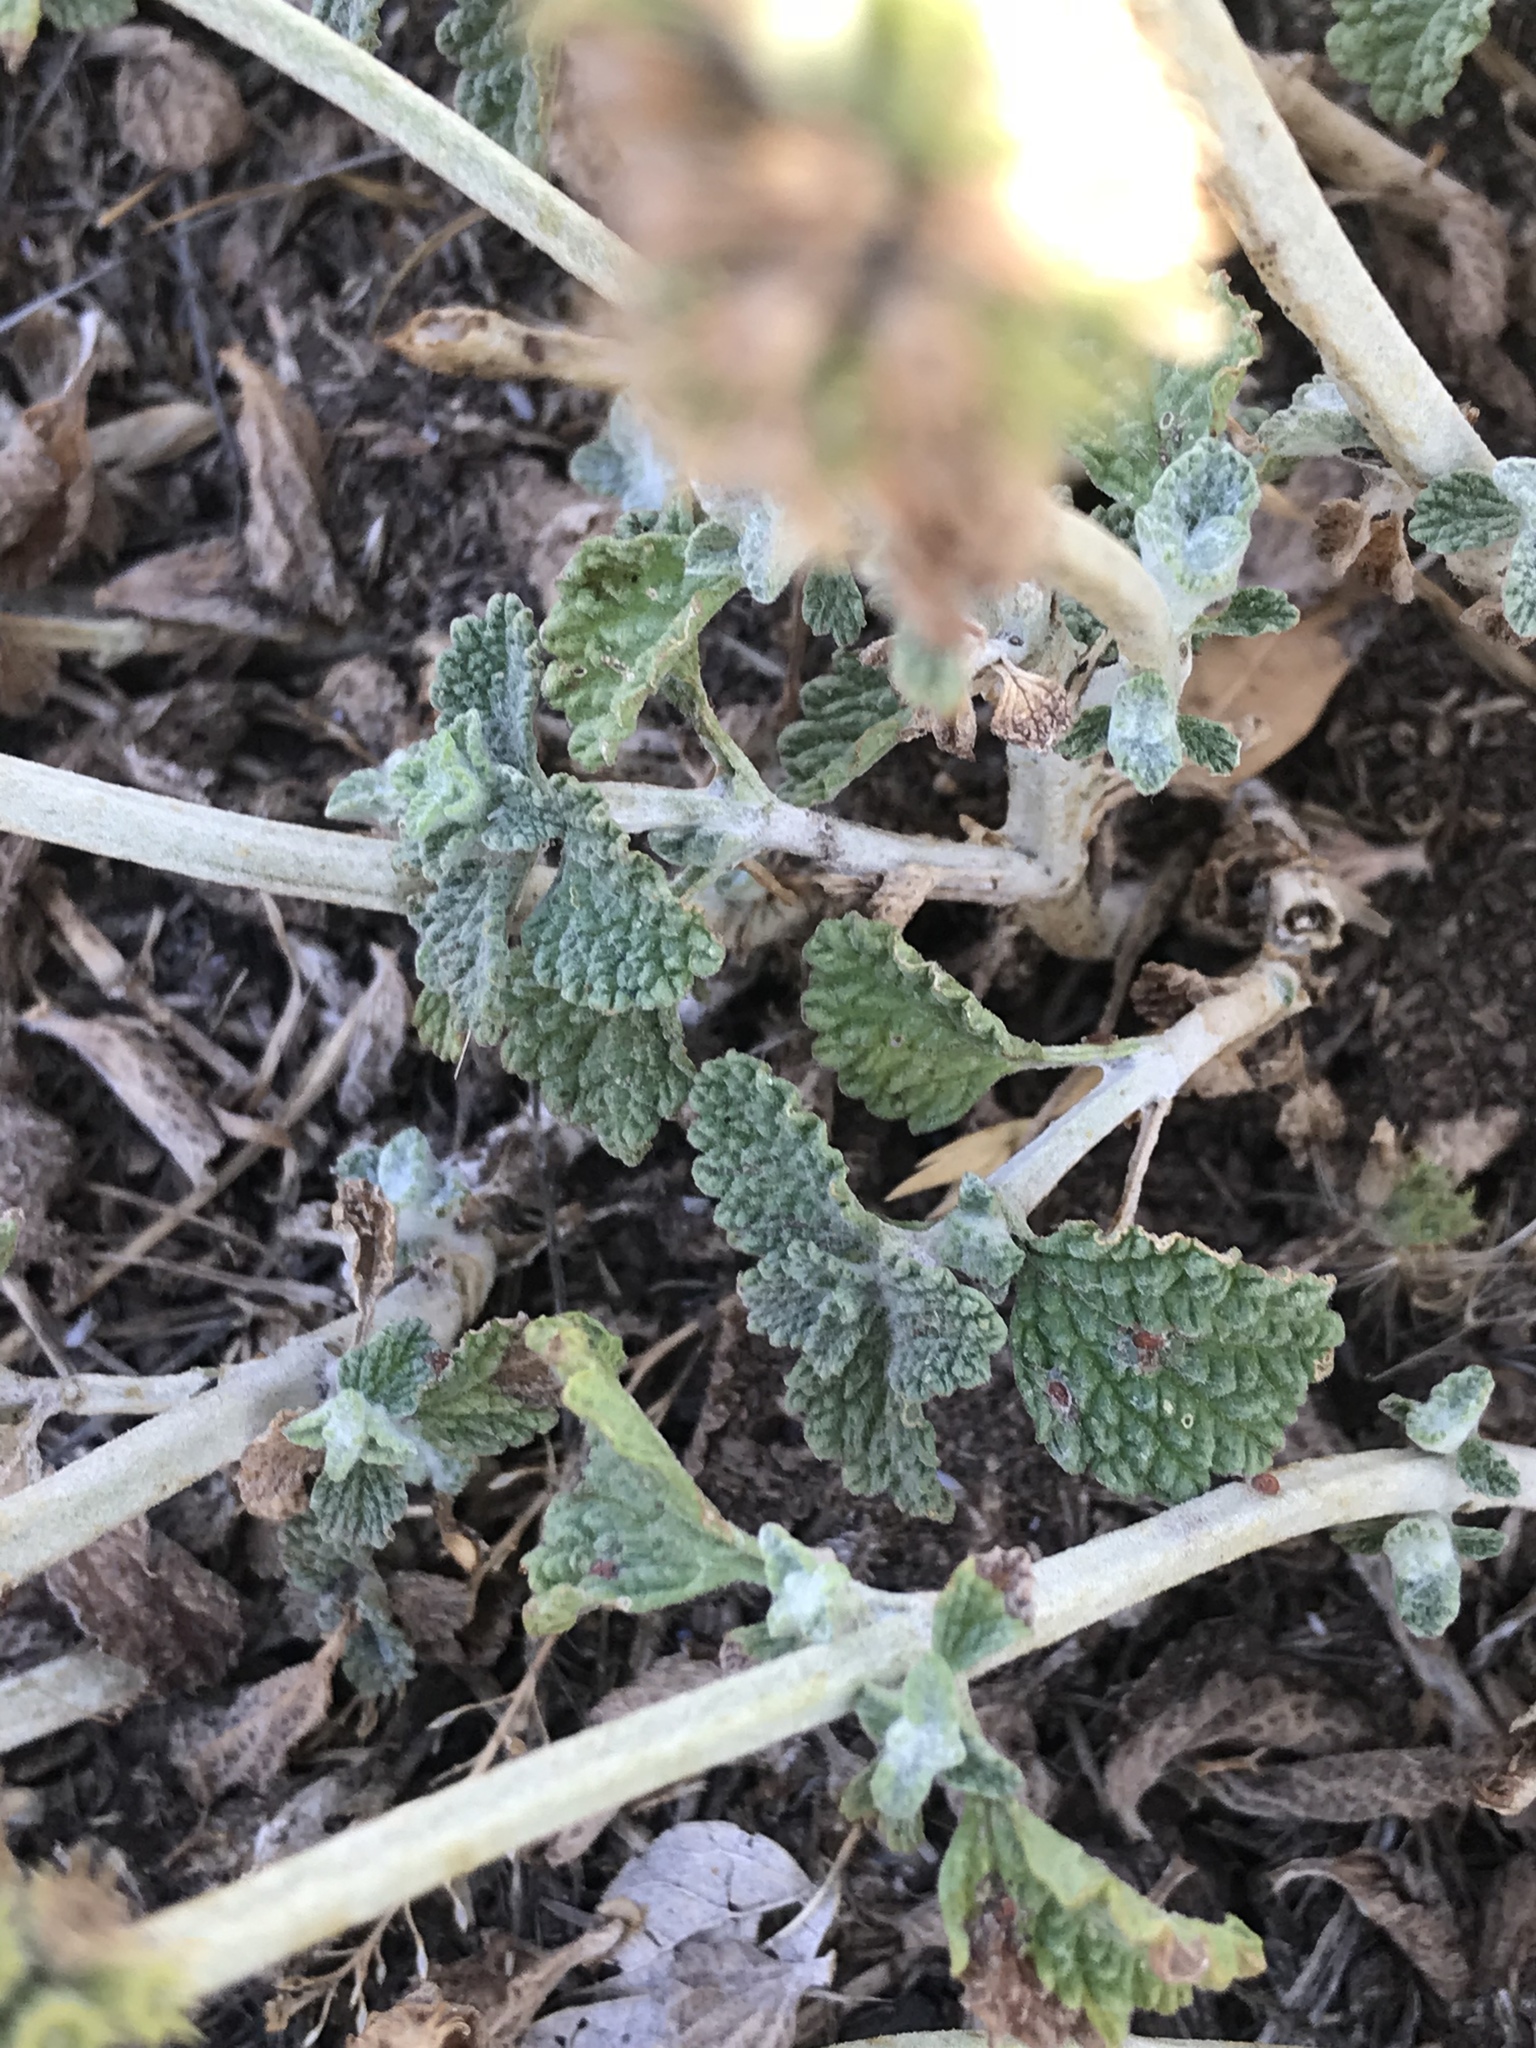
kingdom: Plantae
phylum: Tracheophyta
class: Magnoliopsida
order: Lamiales
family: Lamiaceae
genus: Marrubium
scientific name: Marrubium vulgare
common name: Horehound
